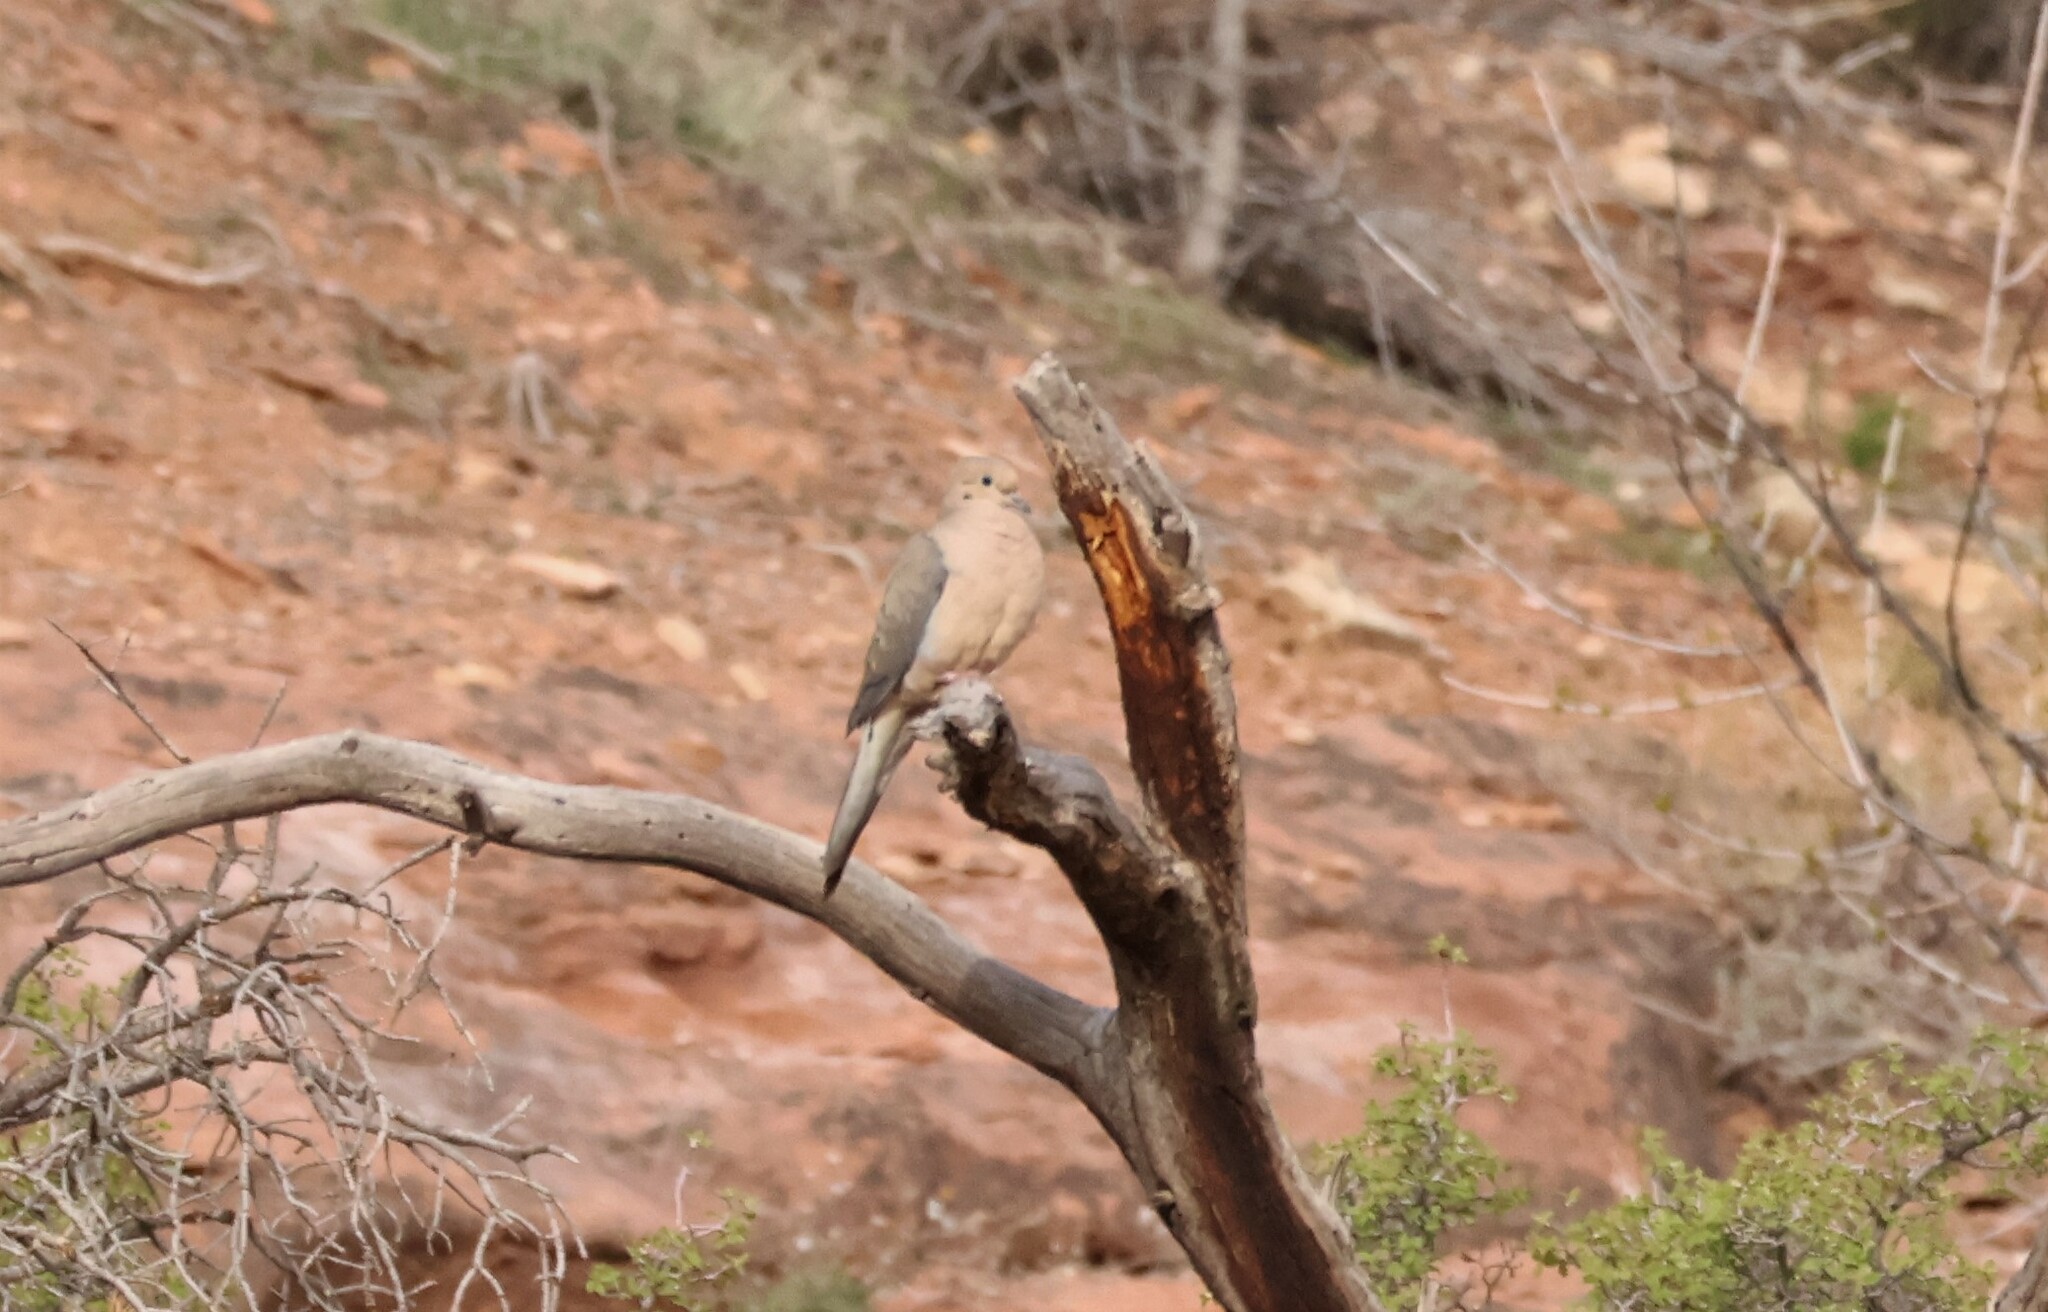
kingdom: Animalia
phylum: Chordata
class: Aves
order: Columbiformes
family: Columbidae
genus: Zenaida
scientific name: Zenaida macroura
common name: Mourning dove
